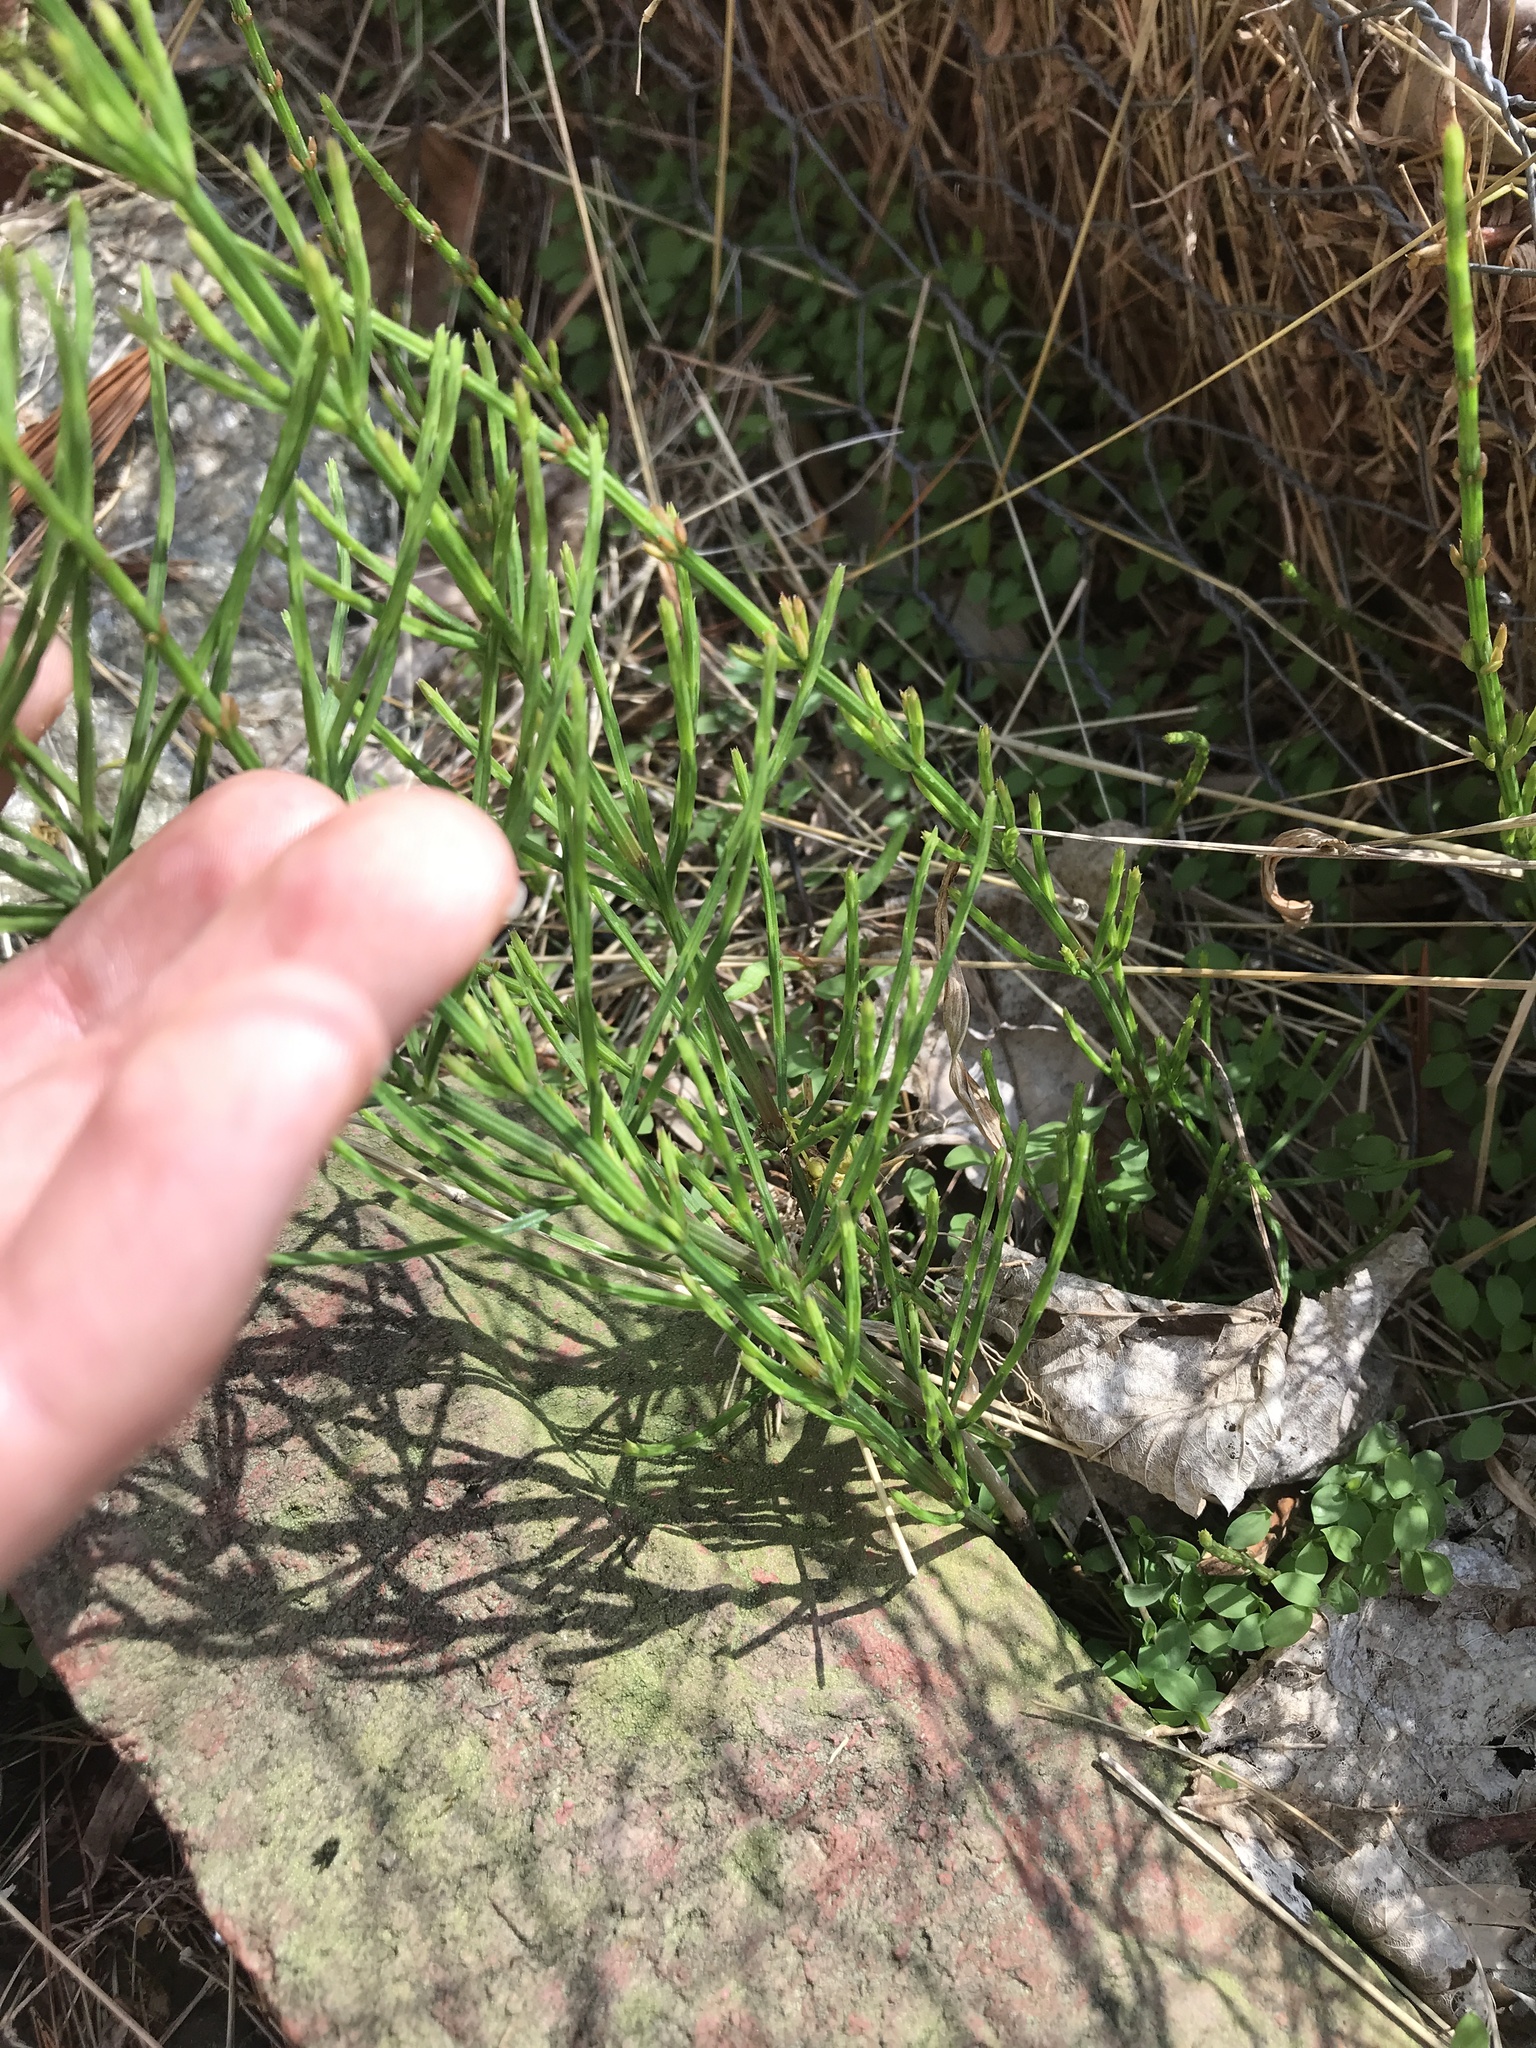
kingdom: Plantae
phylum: Tracheophyta
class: Polypodiopsida
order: Equisetales
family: Equisetaceae
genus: Equisetum
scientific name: Equisetum arvense
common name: Field horsetail
